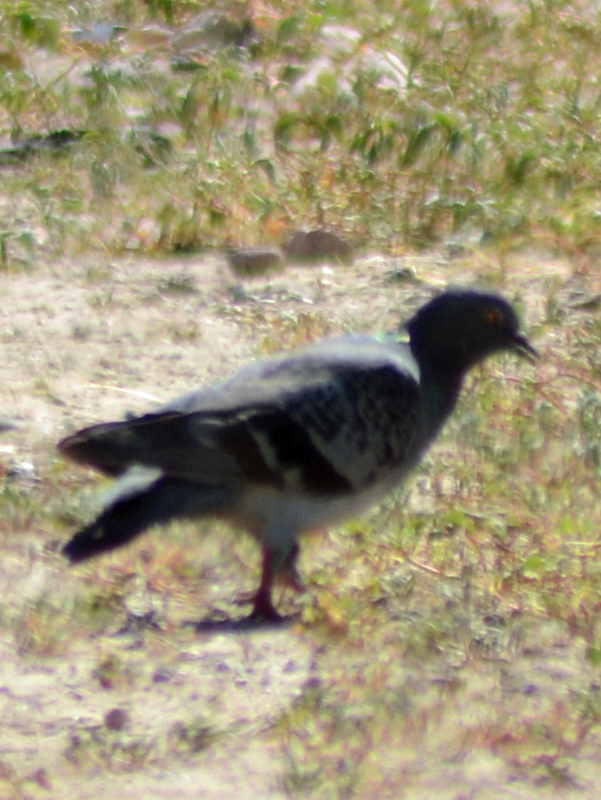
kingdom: Animalia
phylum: Chordata
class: Aves
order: Columbiformes
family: Columbidae
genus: Columba
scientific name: Columba livia
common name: Rock pigeon
